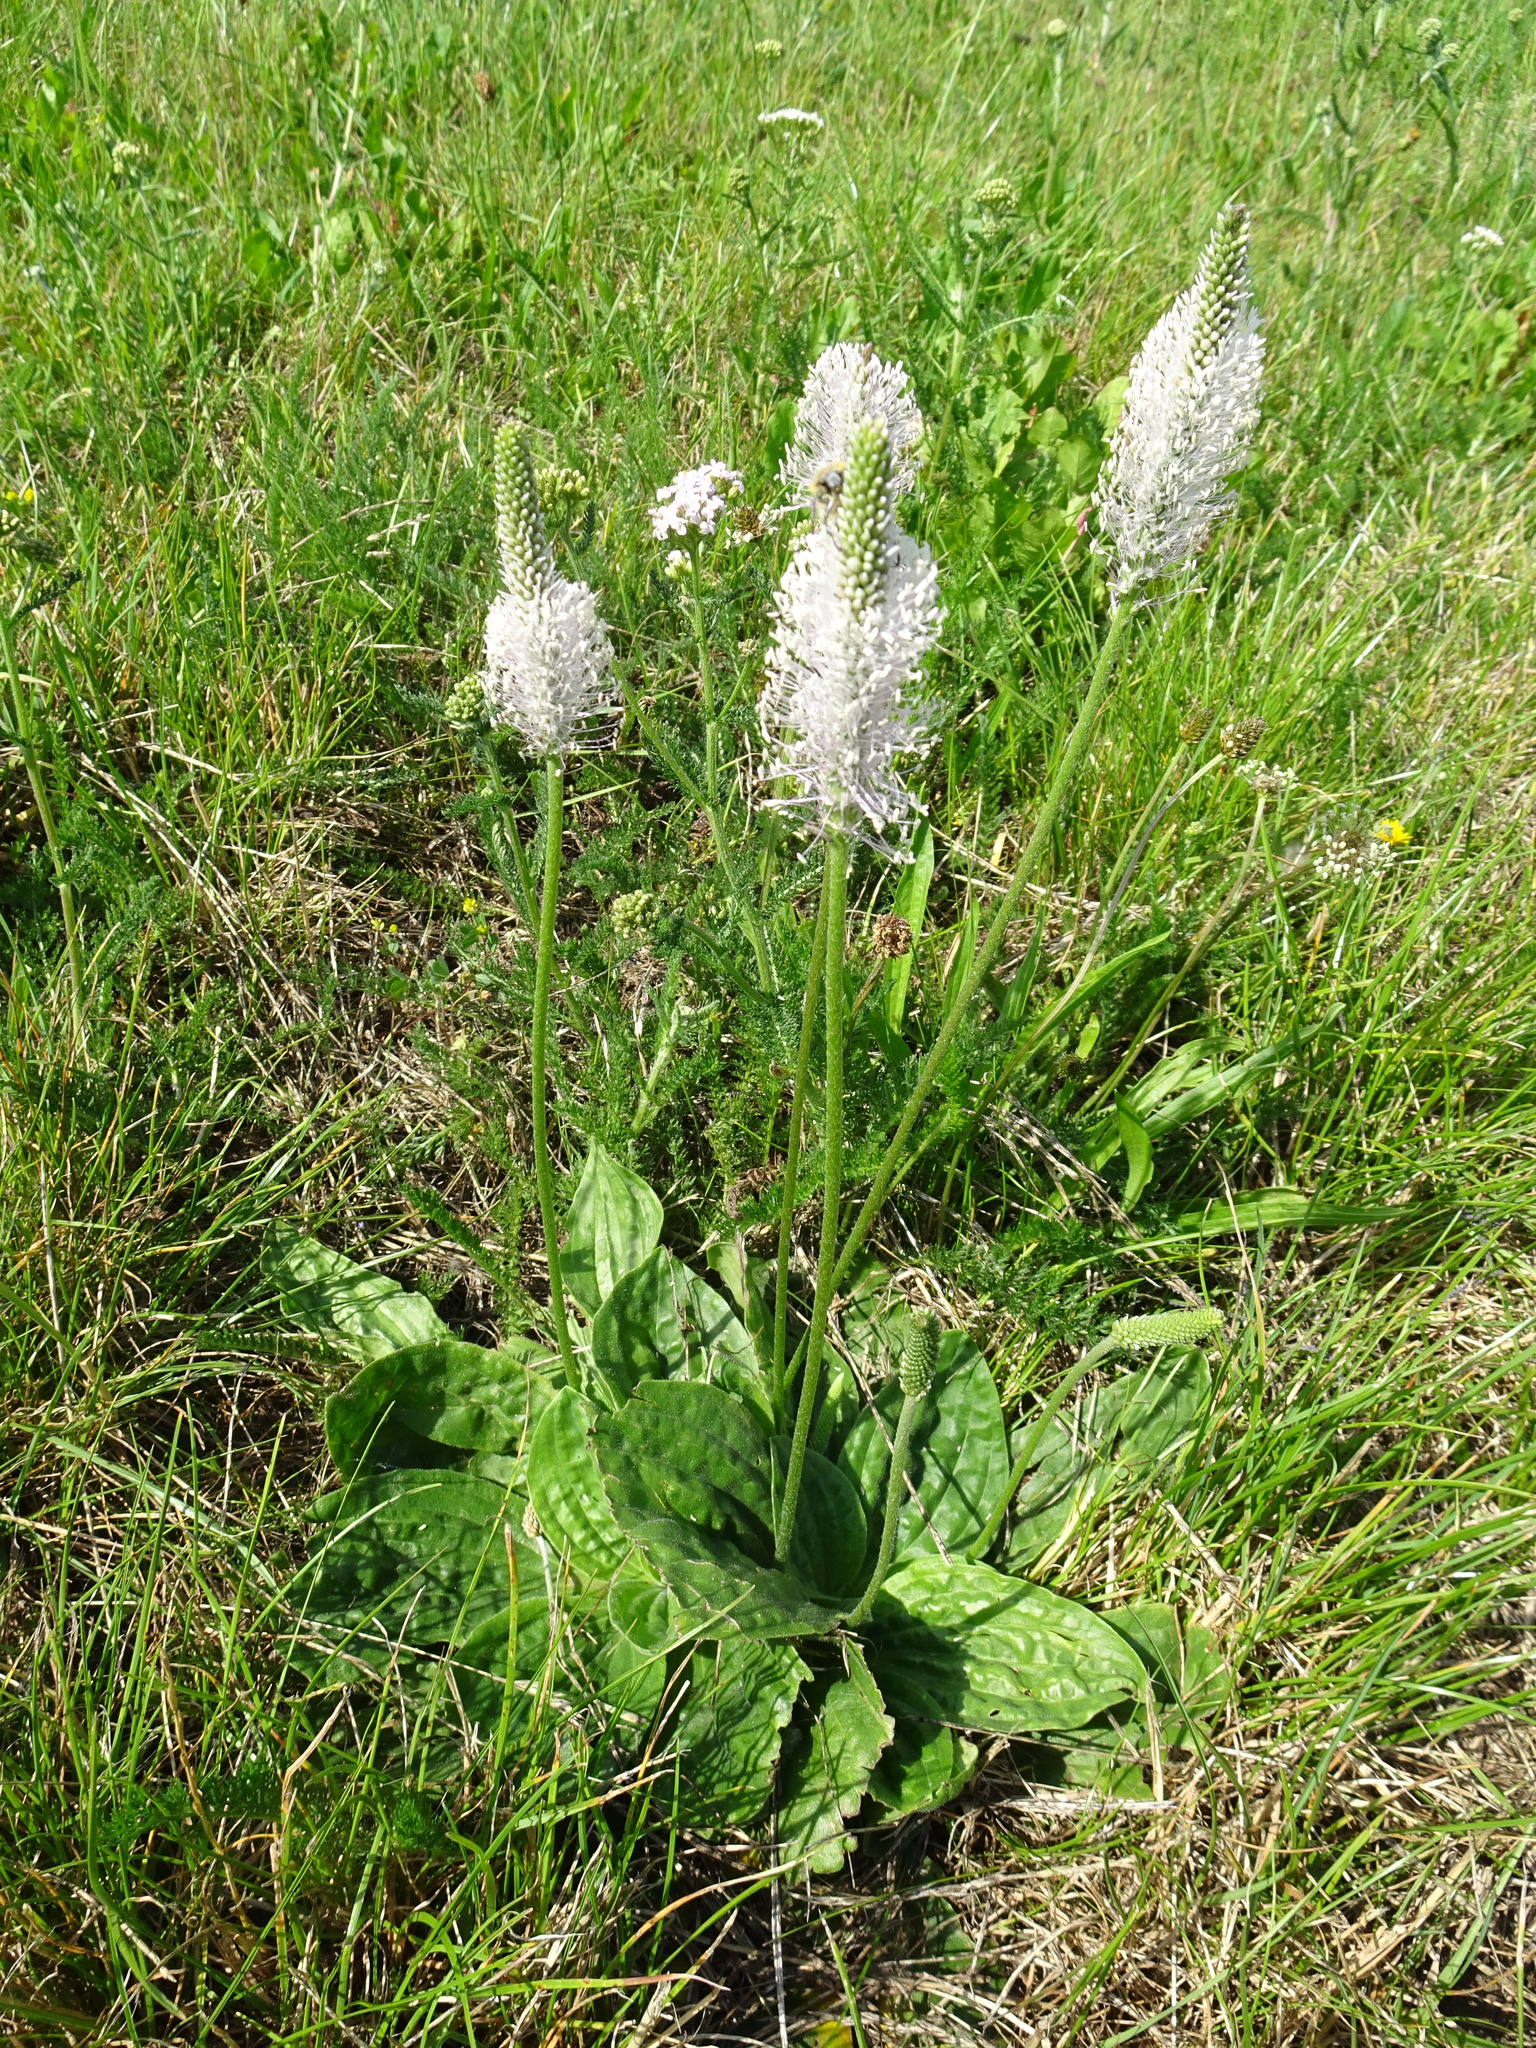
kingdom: Plantae
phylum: Tracheophyta
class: Magnoliopsida
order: Lamiales
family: Plantaginaceae
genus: Plantago
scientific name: Plantago media
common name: Hoary plantain
